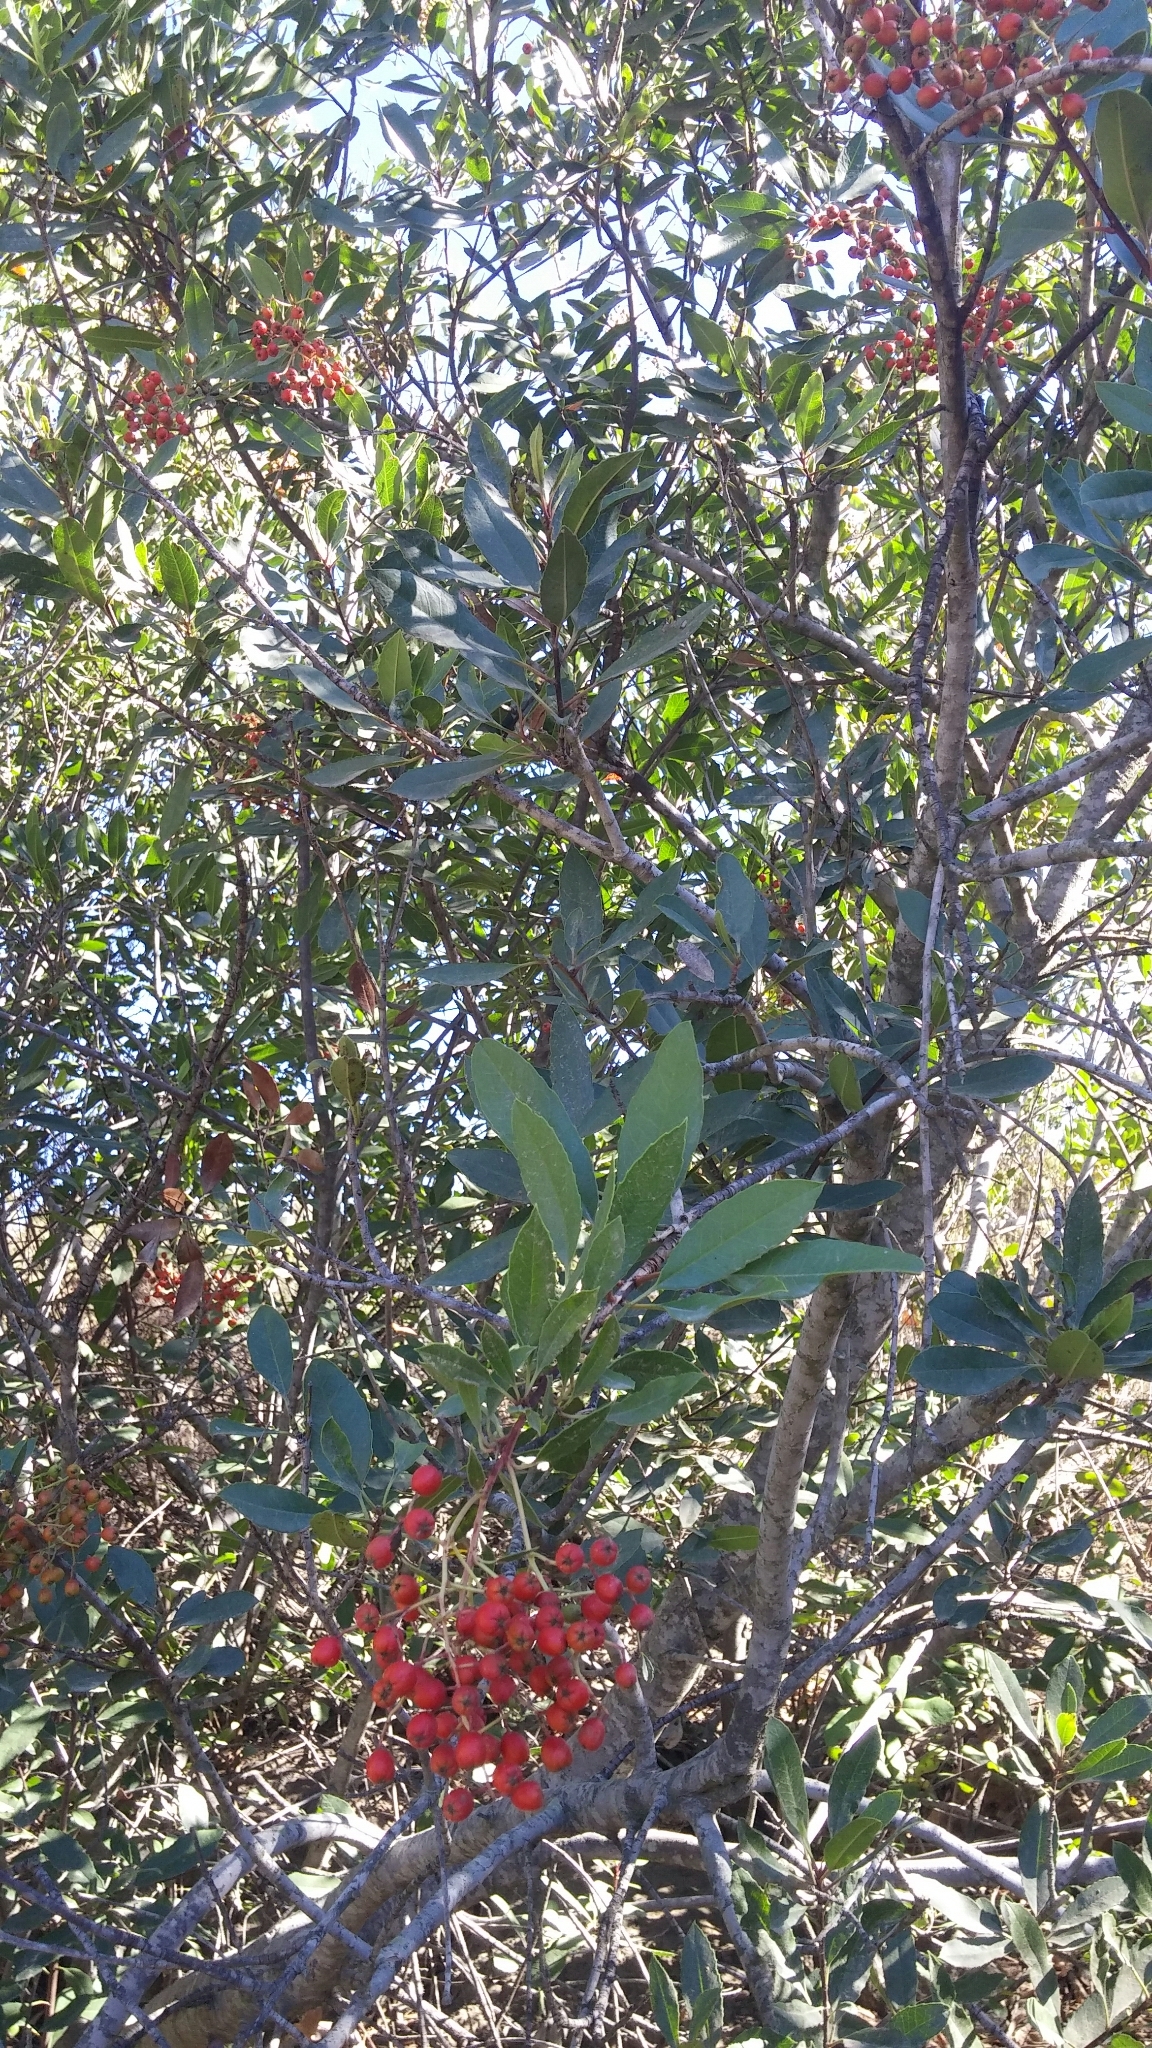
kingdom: Plantae
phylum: Tracheophyta
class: Magnoliopsida
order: Rosales
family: Rosaceae
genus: Heteromeles
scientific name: Heteromeles arbutifolia
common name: California-holly
